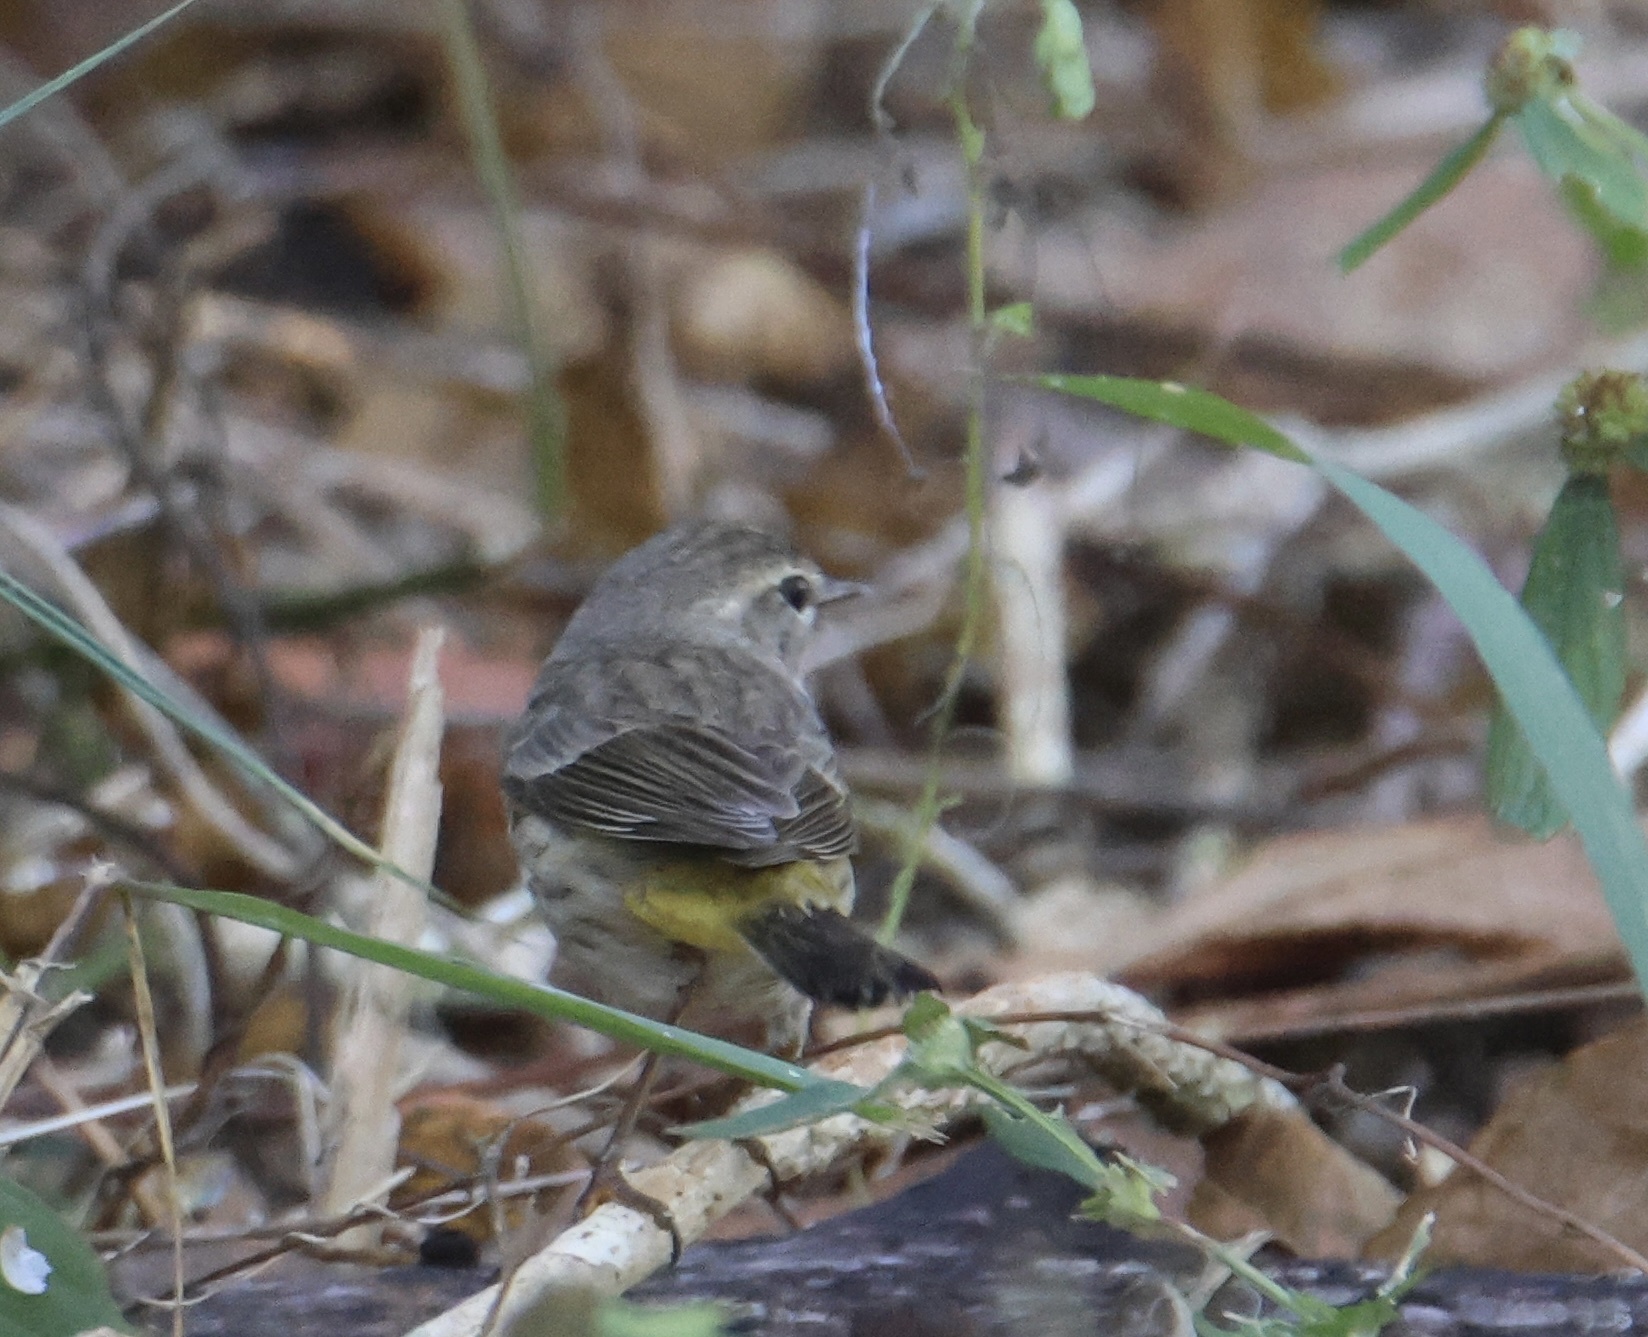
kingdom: Animalia
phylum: Chordata
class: Aves
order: Passeriformes
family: Parulidae
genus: Setophaga
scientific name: Setophaga palmarum
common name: Palm warbler
